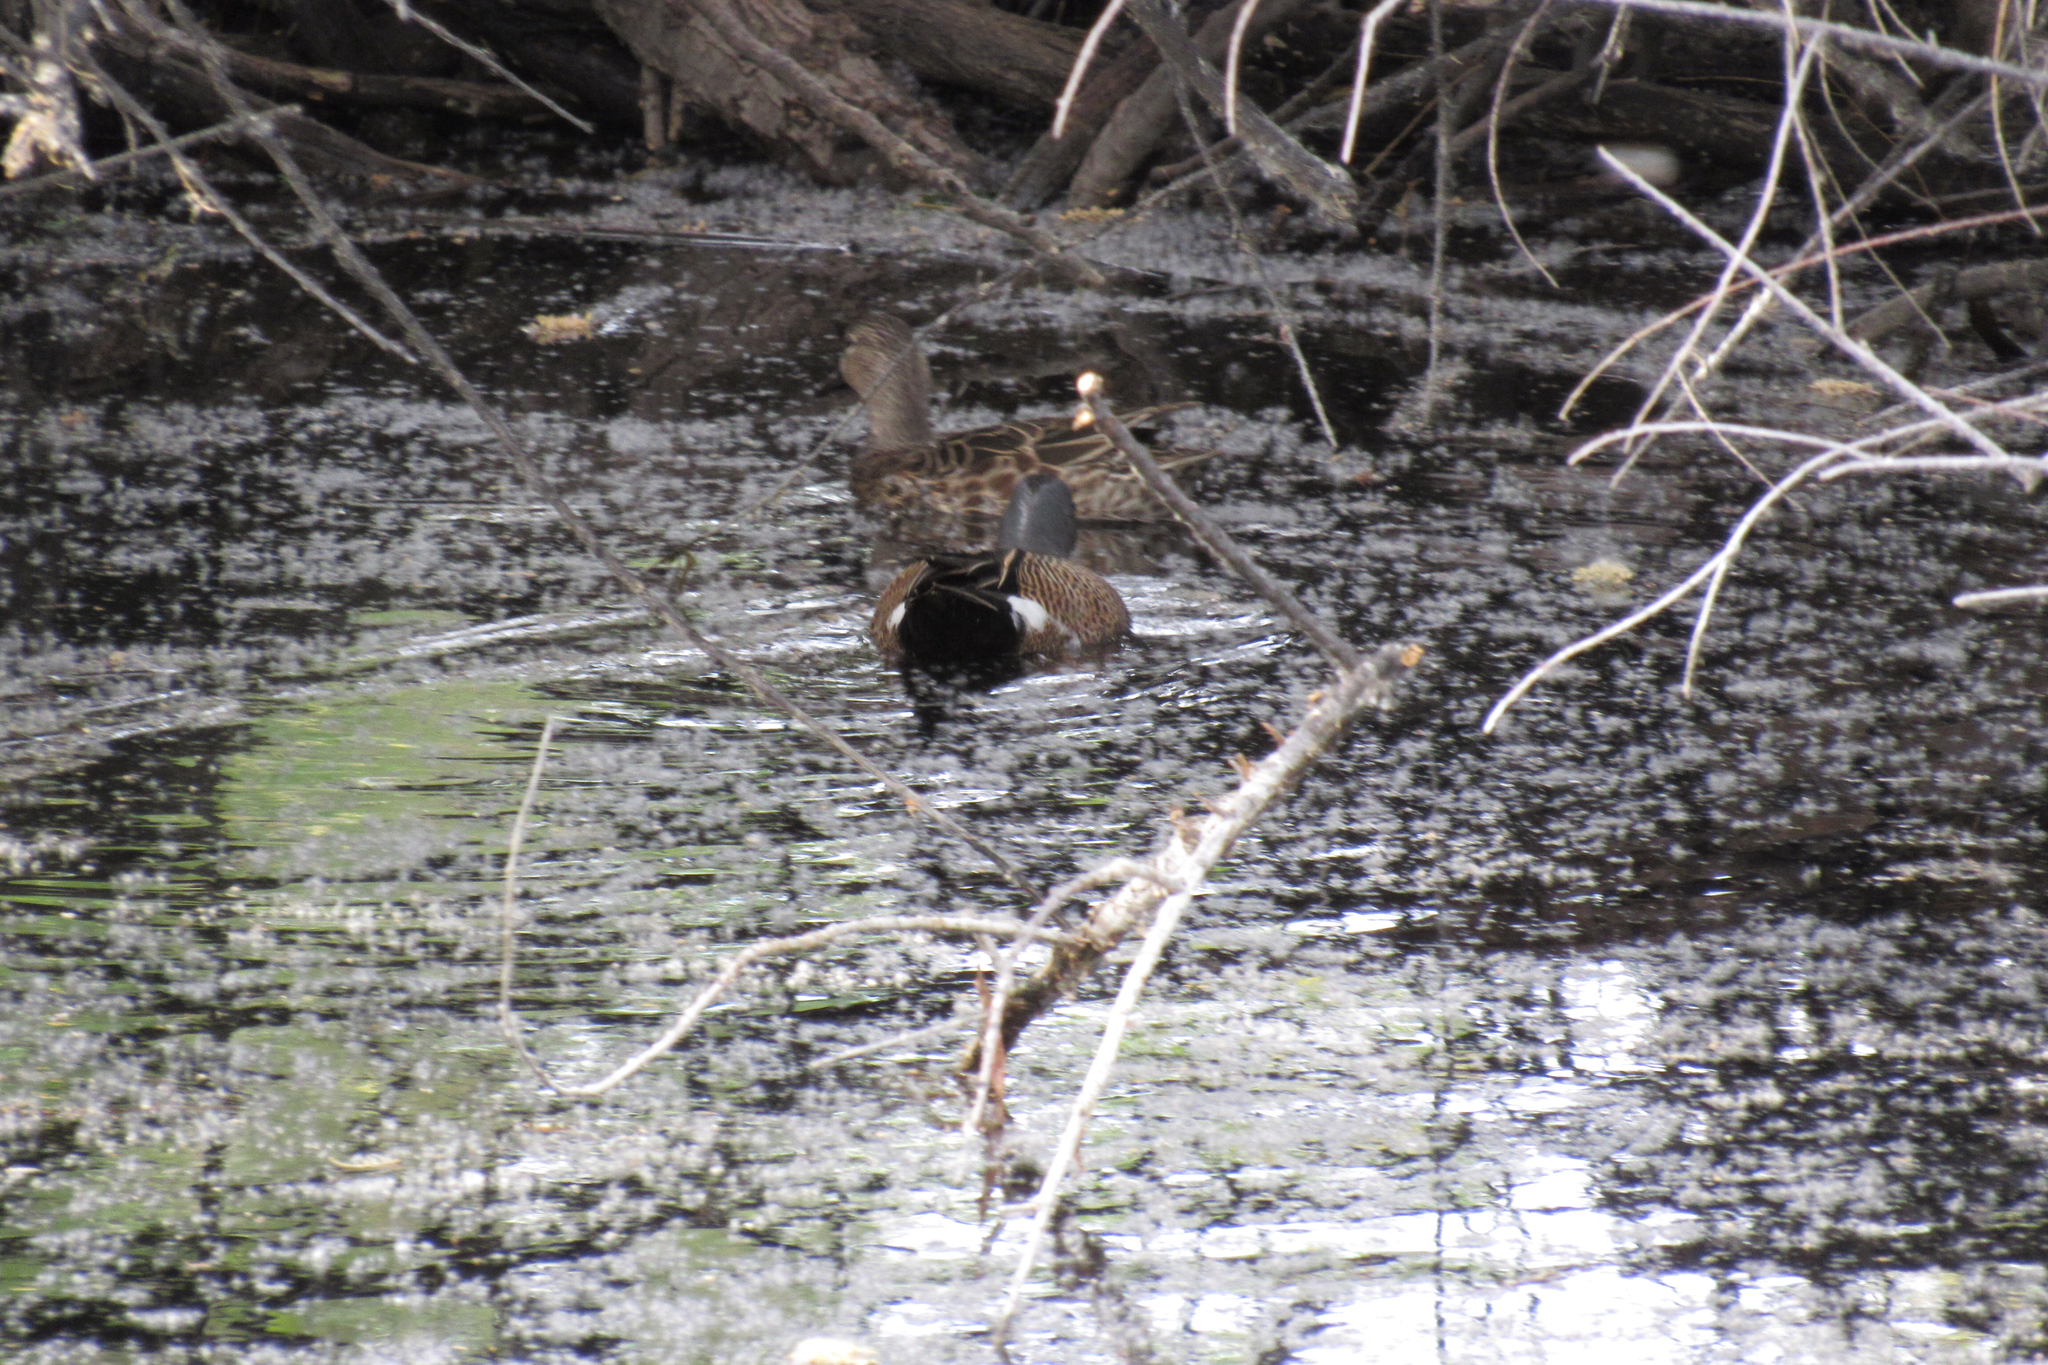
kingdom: Animalia
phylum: Chordata
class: Aves
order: Anseriformes
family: Anatidae
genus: Spatula
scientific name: Spatula discors
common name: Blue-winged teal
